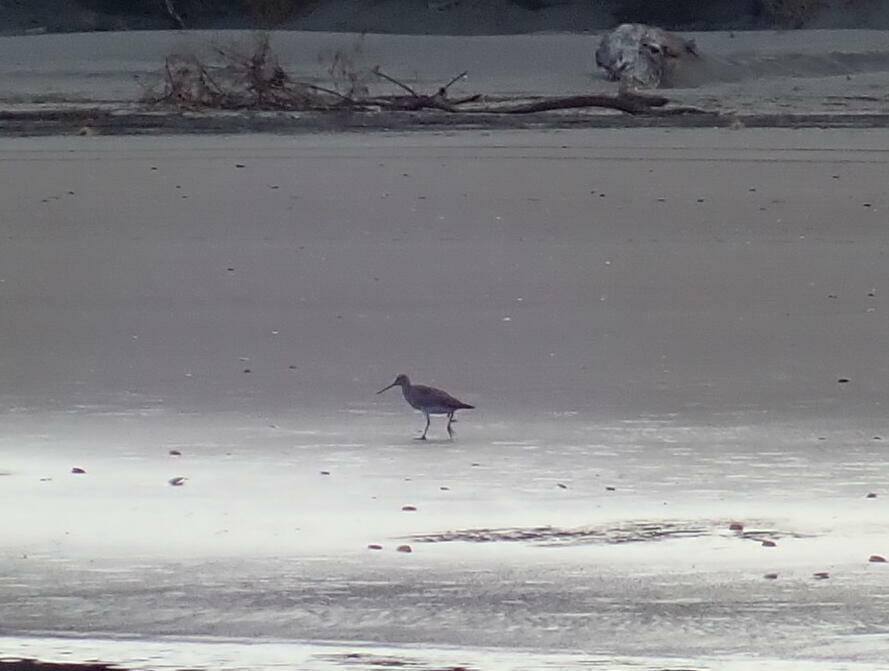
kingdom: Animalia
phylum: Chordata
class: Aves
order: Charadriiformes
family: Scolopacidae
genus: Limosa
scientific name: Limosa lapponica
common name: Bar-tailed godwit
